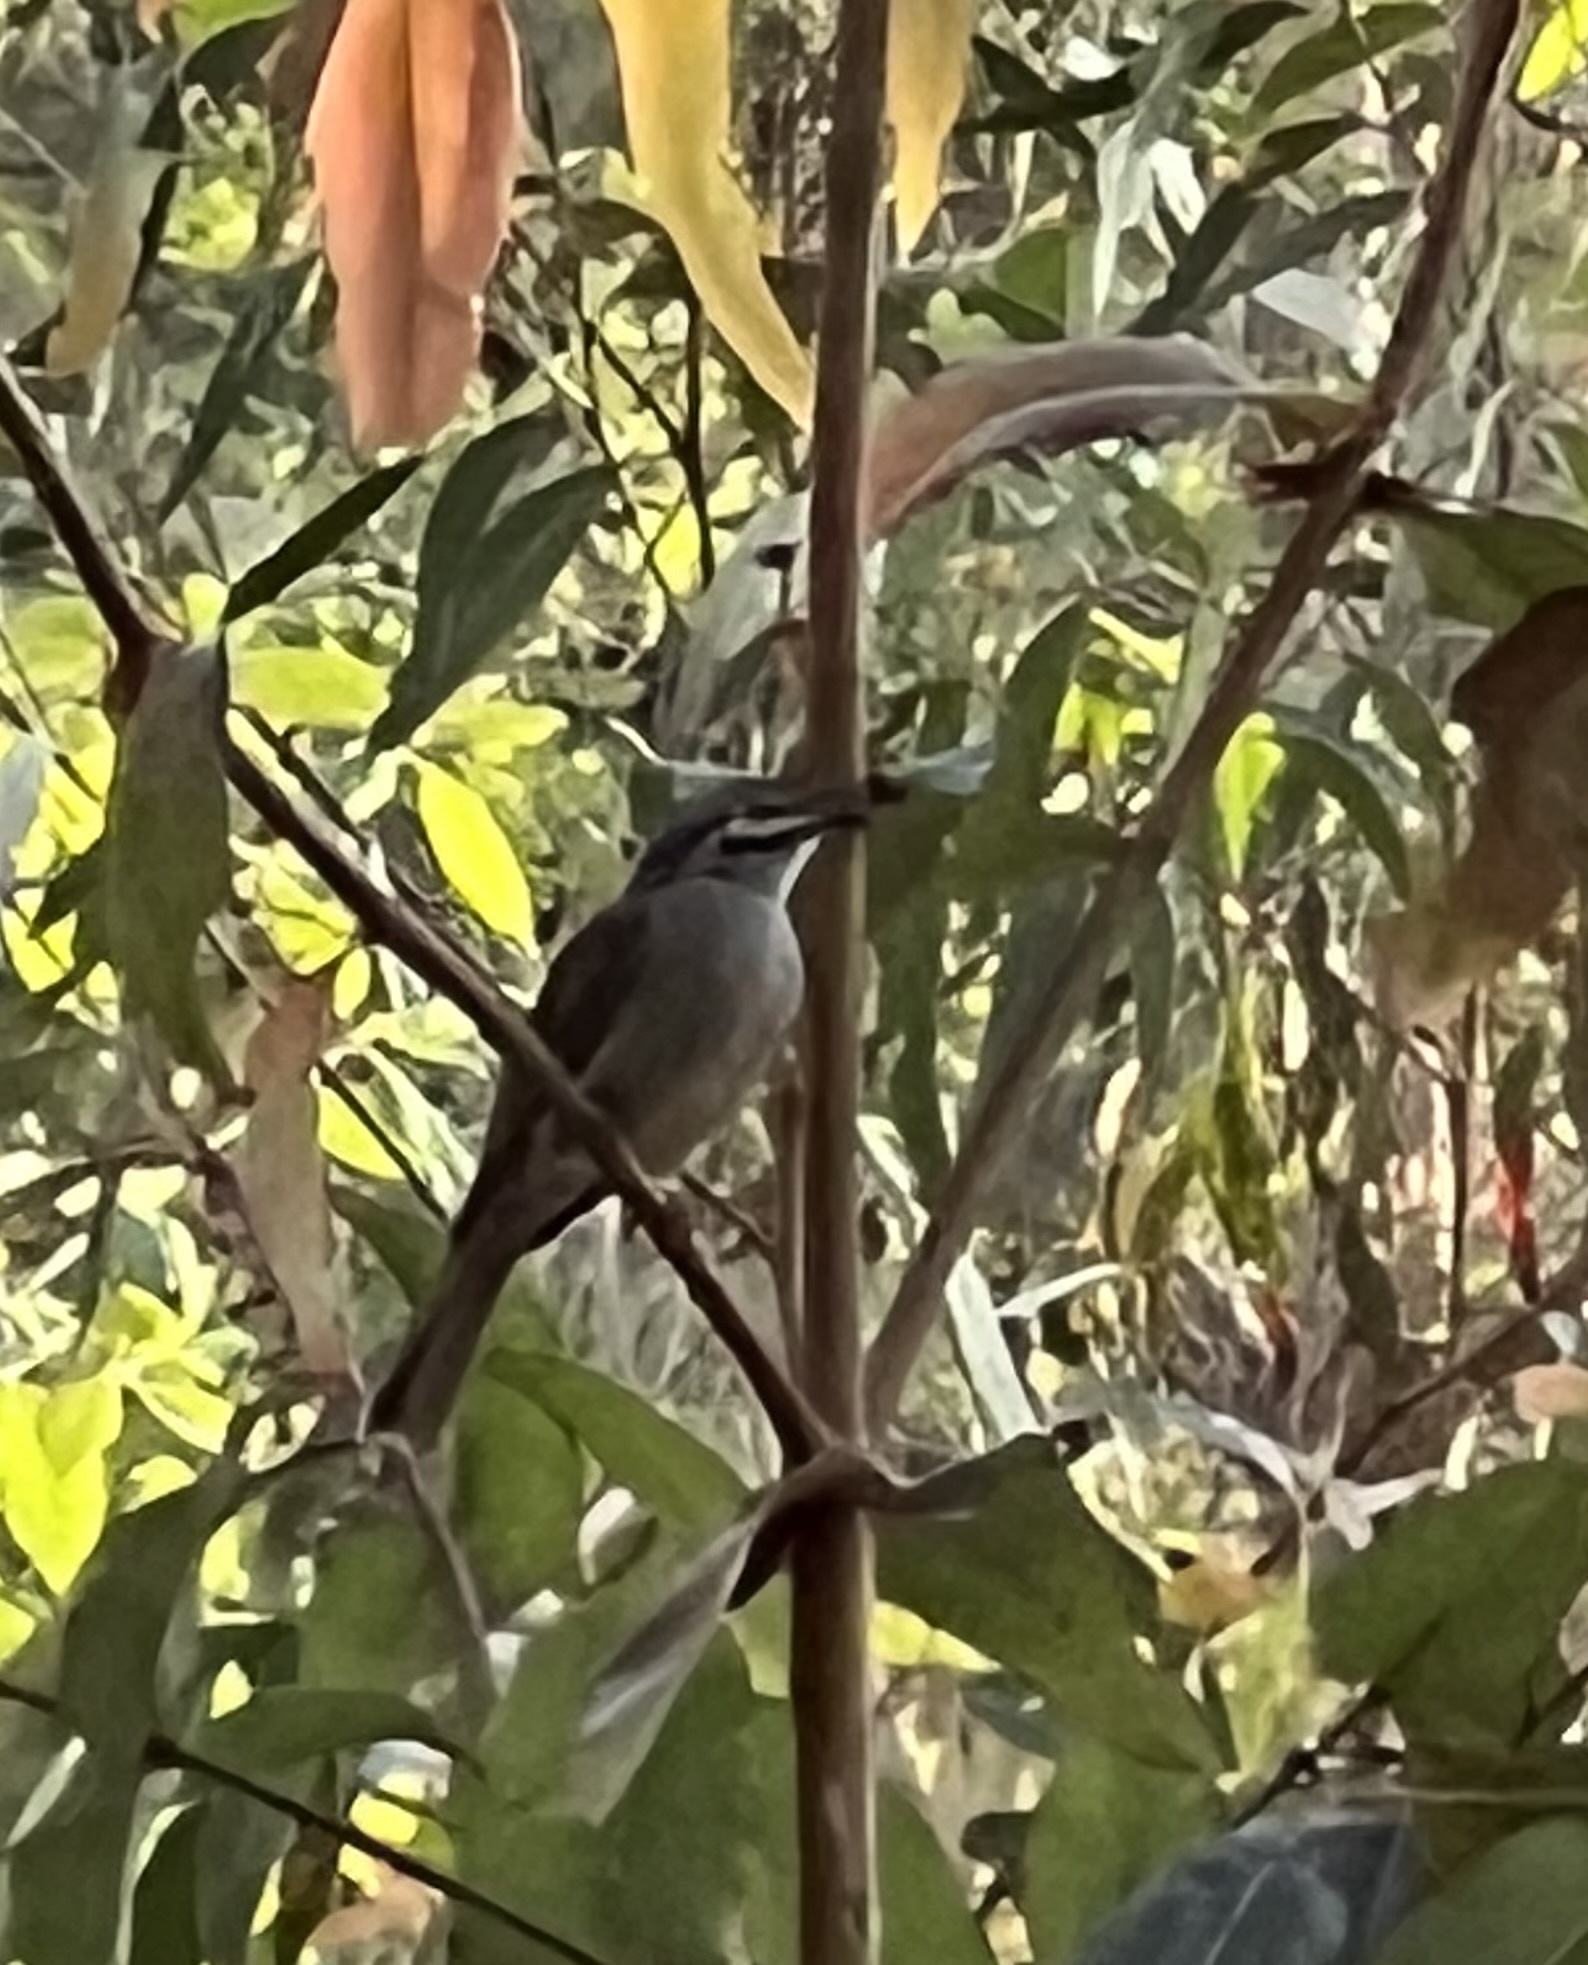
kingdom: Animalia
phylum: Chordata
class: Aves
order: Passeriformes
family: Meliphagidae
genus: Caligavis
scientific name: Caligavis chrysops
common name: Yellow-faced honeyeater
